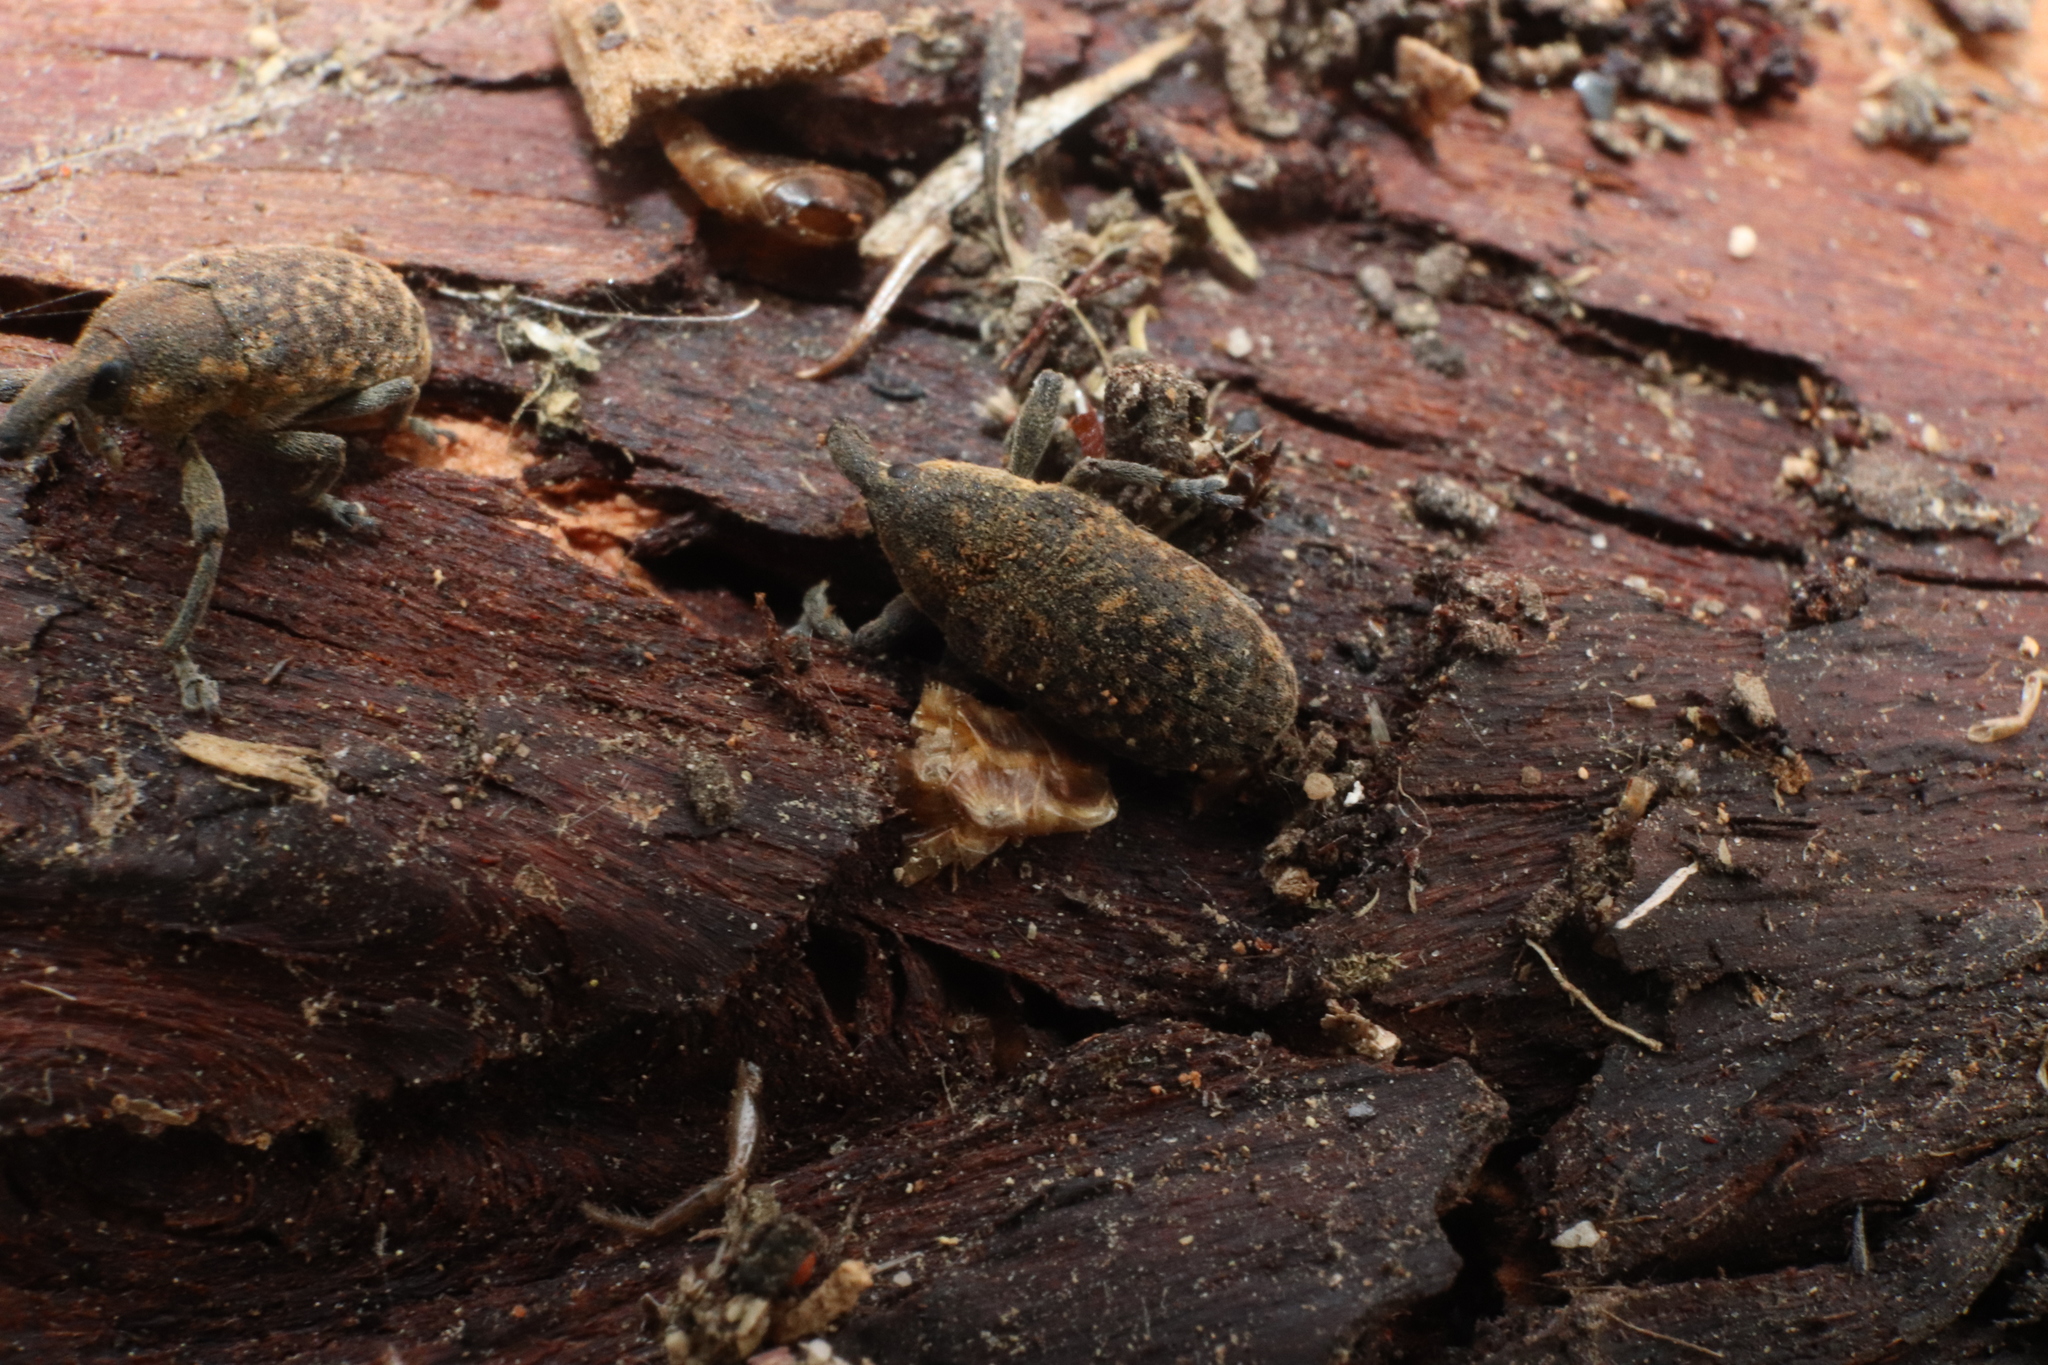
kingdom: Animalia
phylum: Arthropoda
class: Insecta
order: Coleoptera
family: Curculionidae
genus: Larinus
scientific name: Larinus carlinae
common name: Weevil
